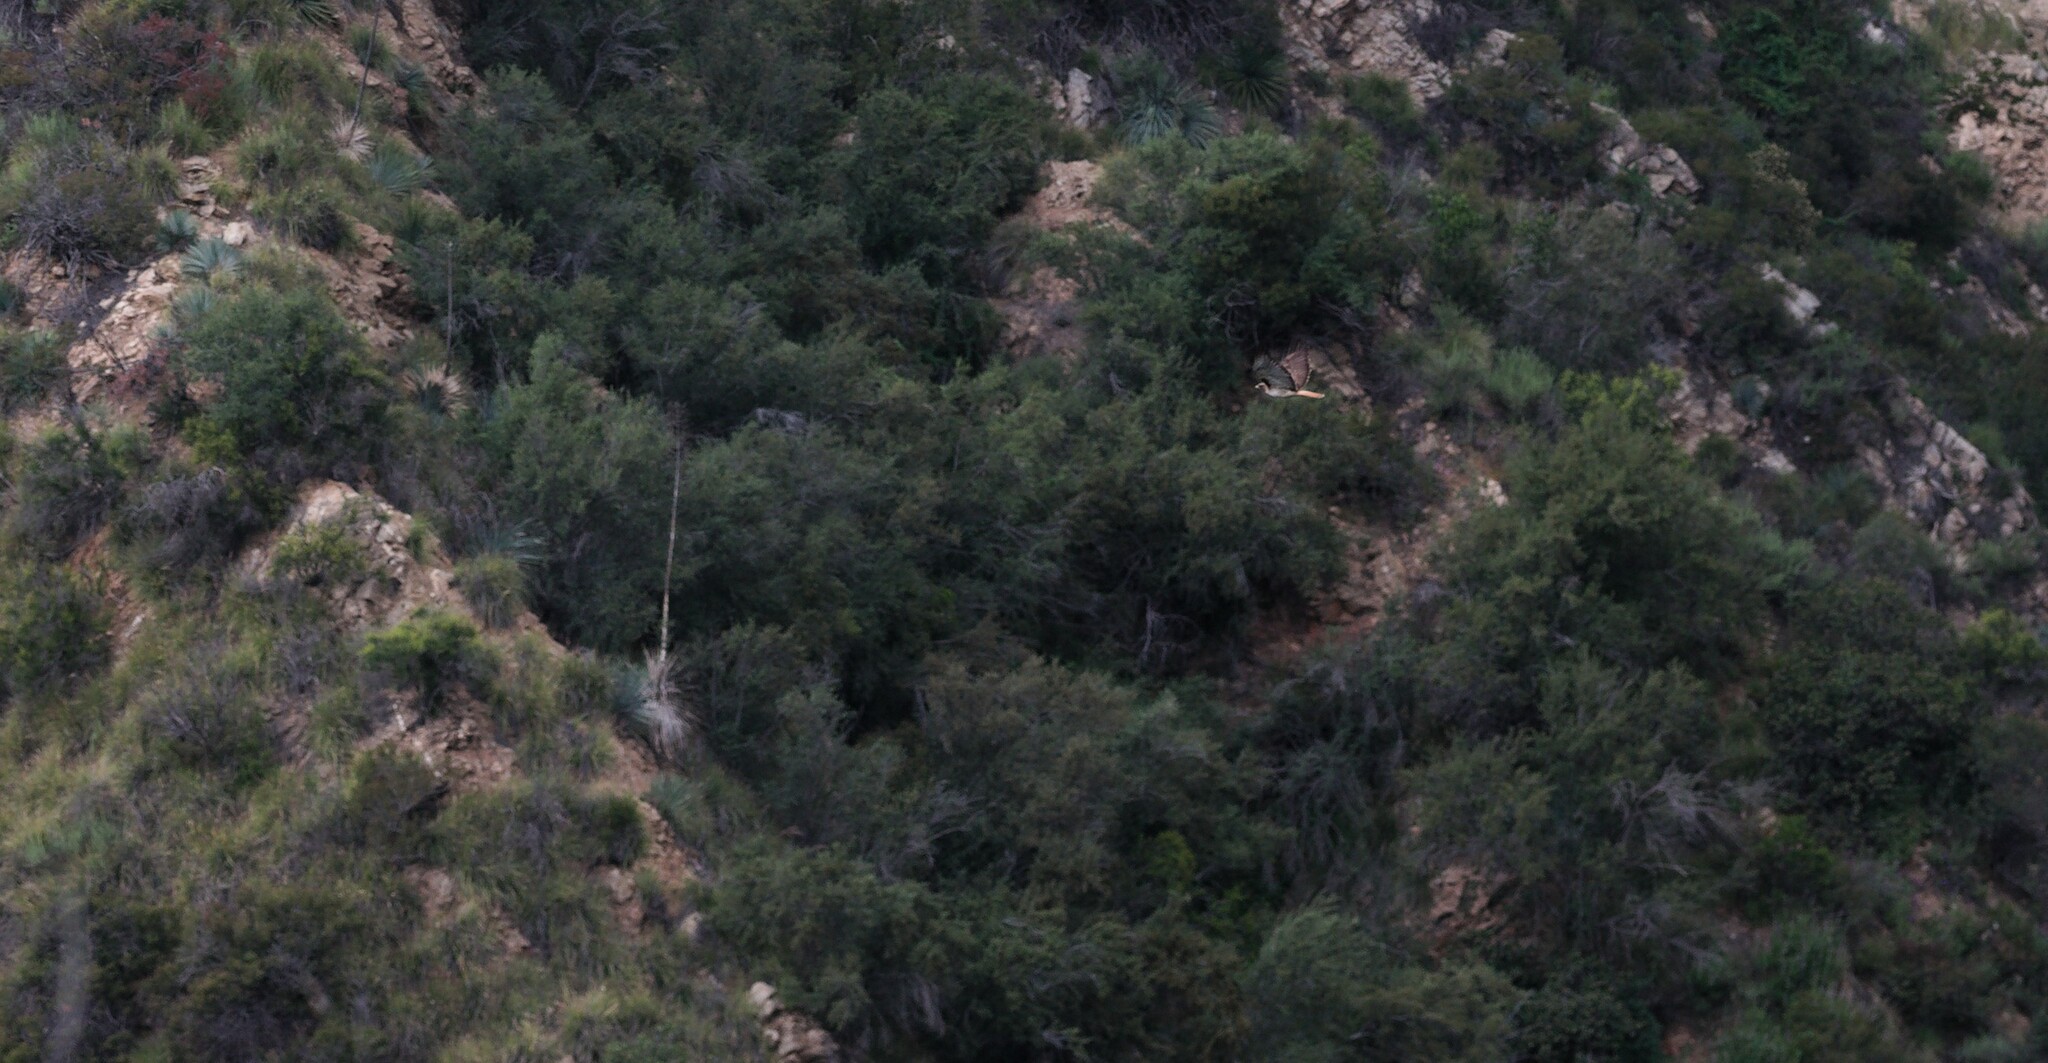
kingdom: Animalia
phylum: Chordata
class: Aves
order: Accipitriformes
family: Accipitridae
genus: Buteo
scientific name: Buteo jamaicensis
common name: Red-tailed hawk
